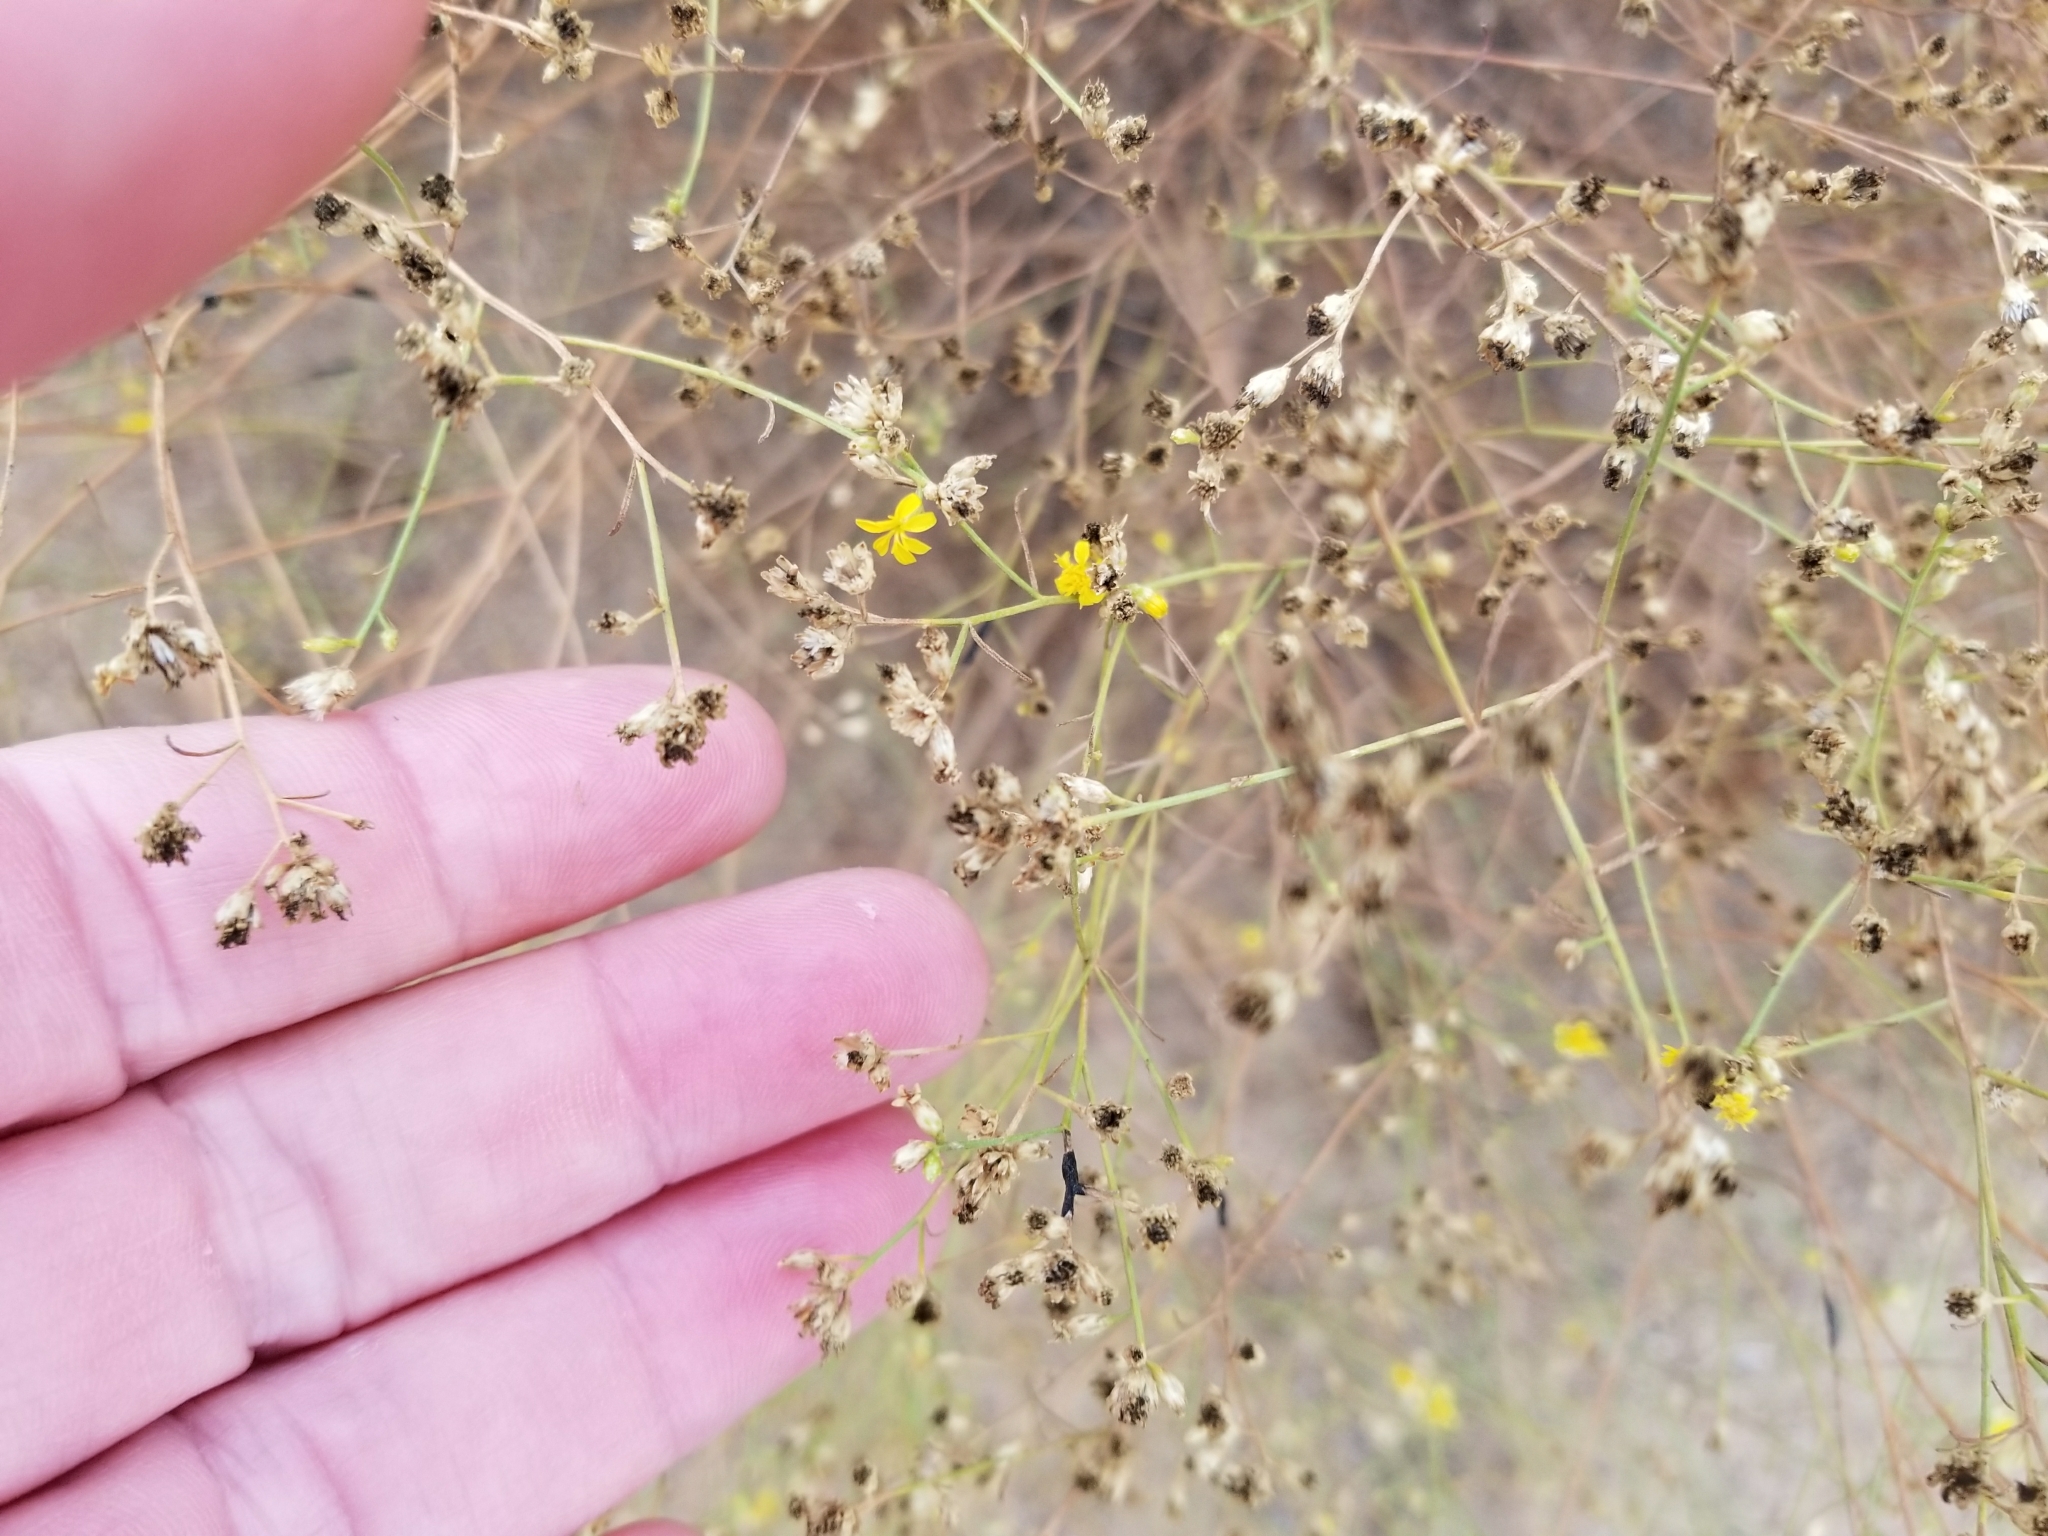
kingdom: Plantae
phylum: Tracheophyta
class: Magnoliopsida
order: Asterales
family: Asteraceae
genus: Gutierrezia
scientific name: Gutierrezia sarothrae
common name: Broom snakeweed
